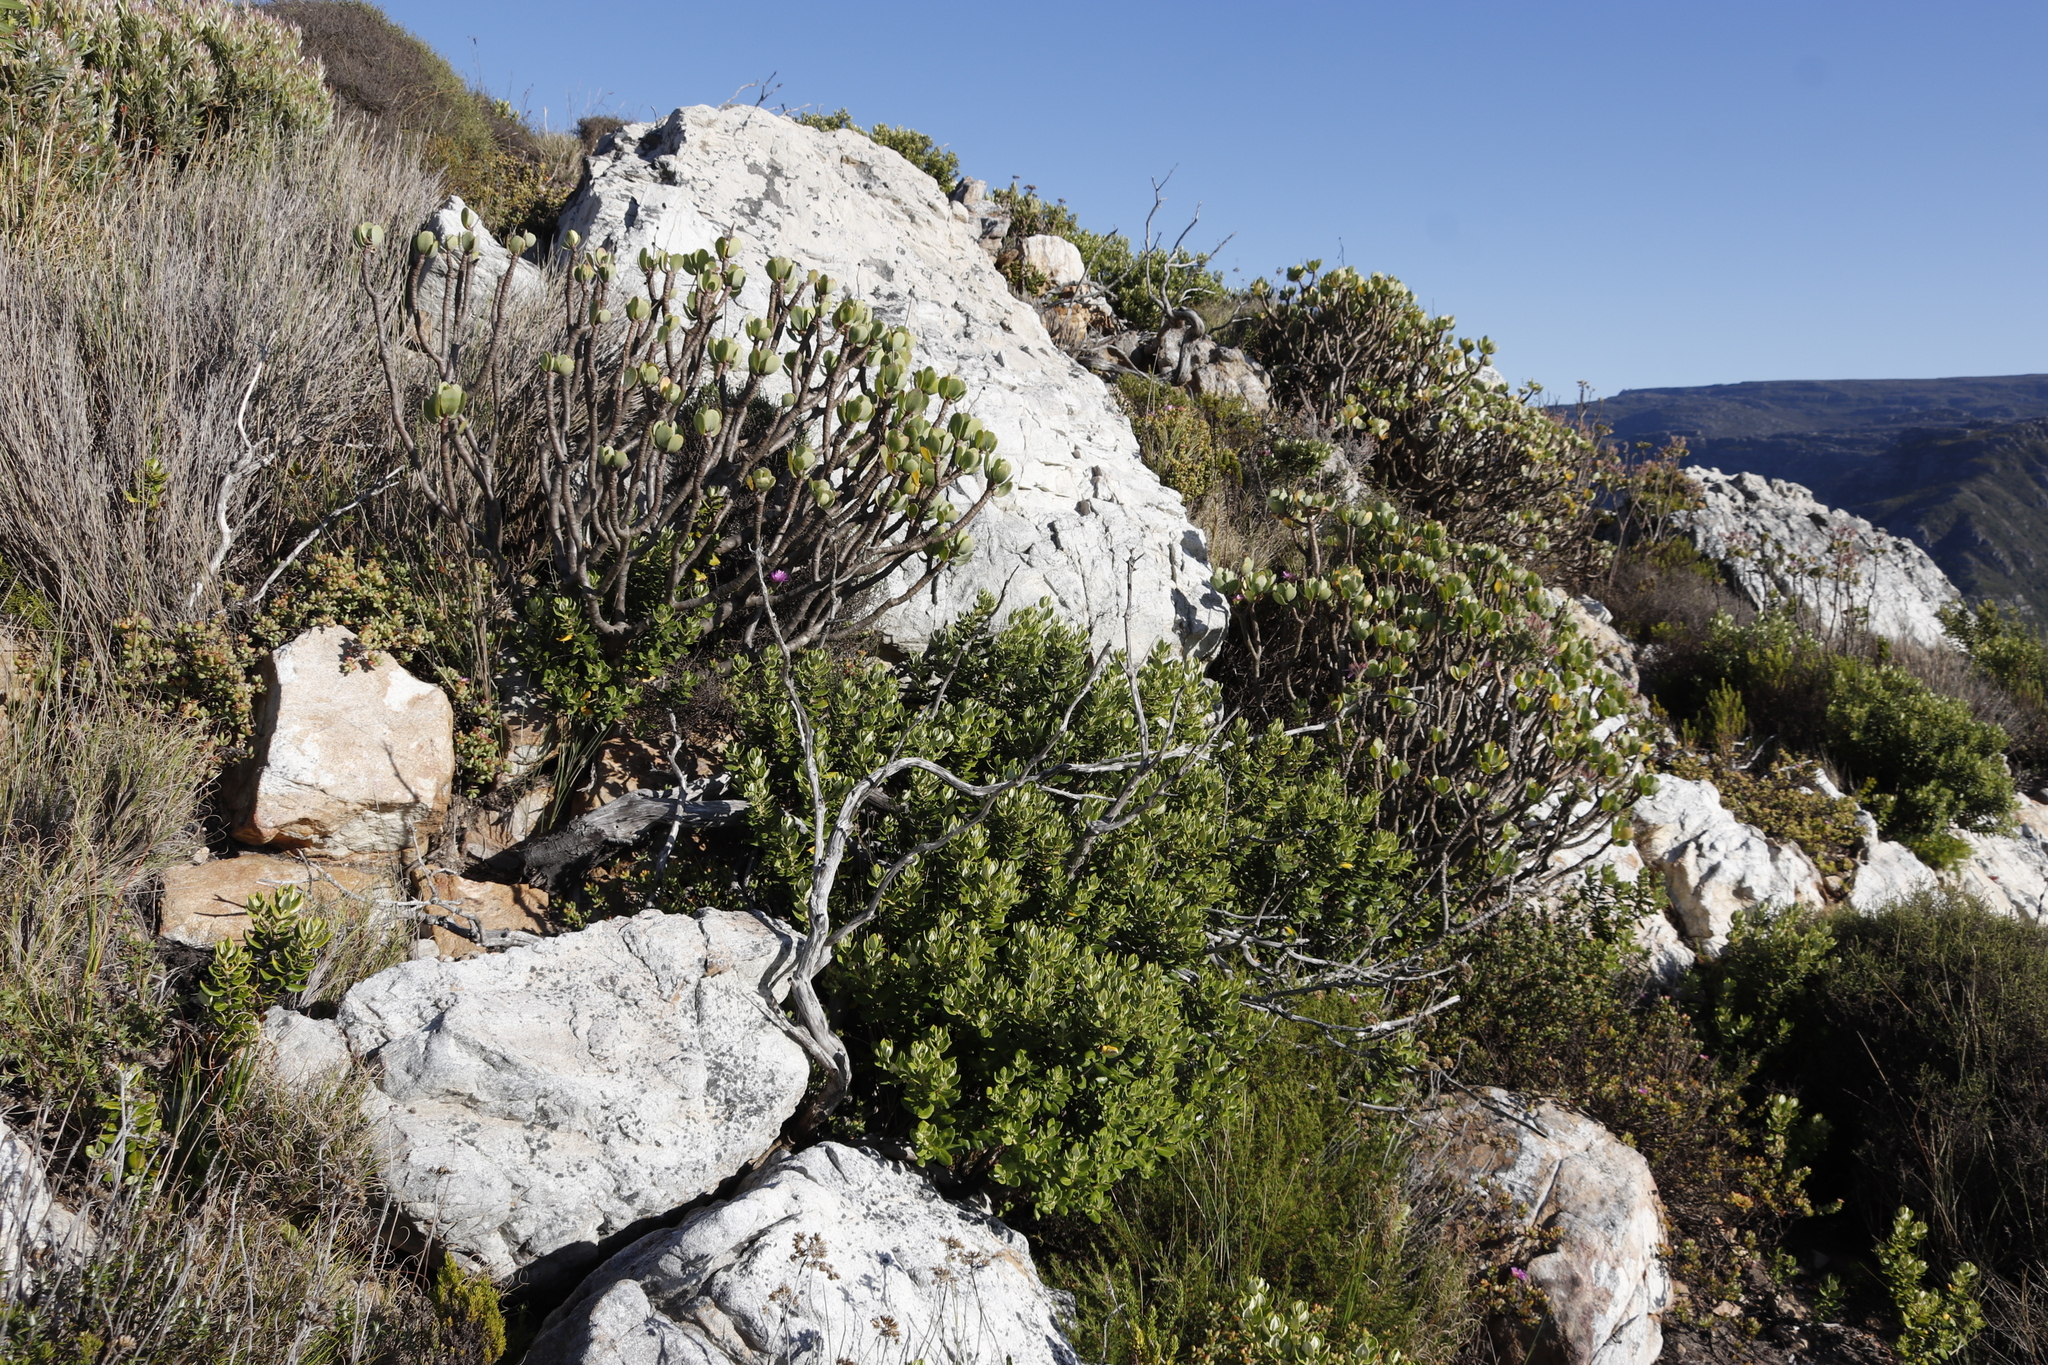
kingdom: Plantae
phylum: Tracheophyta
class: Magnoliopsida
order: Asterales
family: Asteraceae
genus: Othonna
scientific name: Othonna dentata
